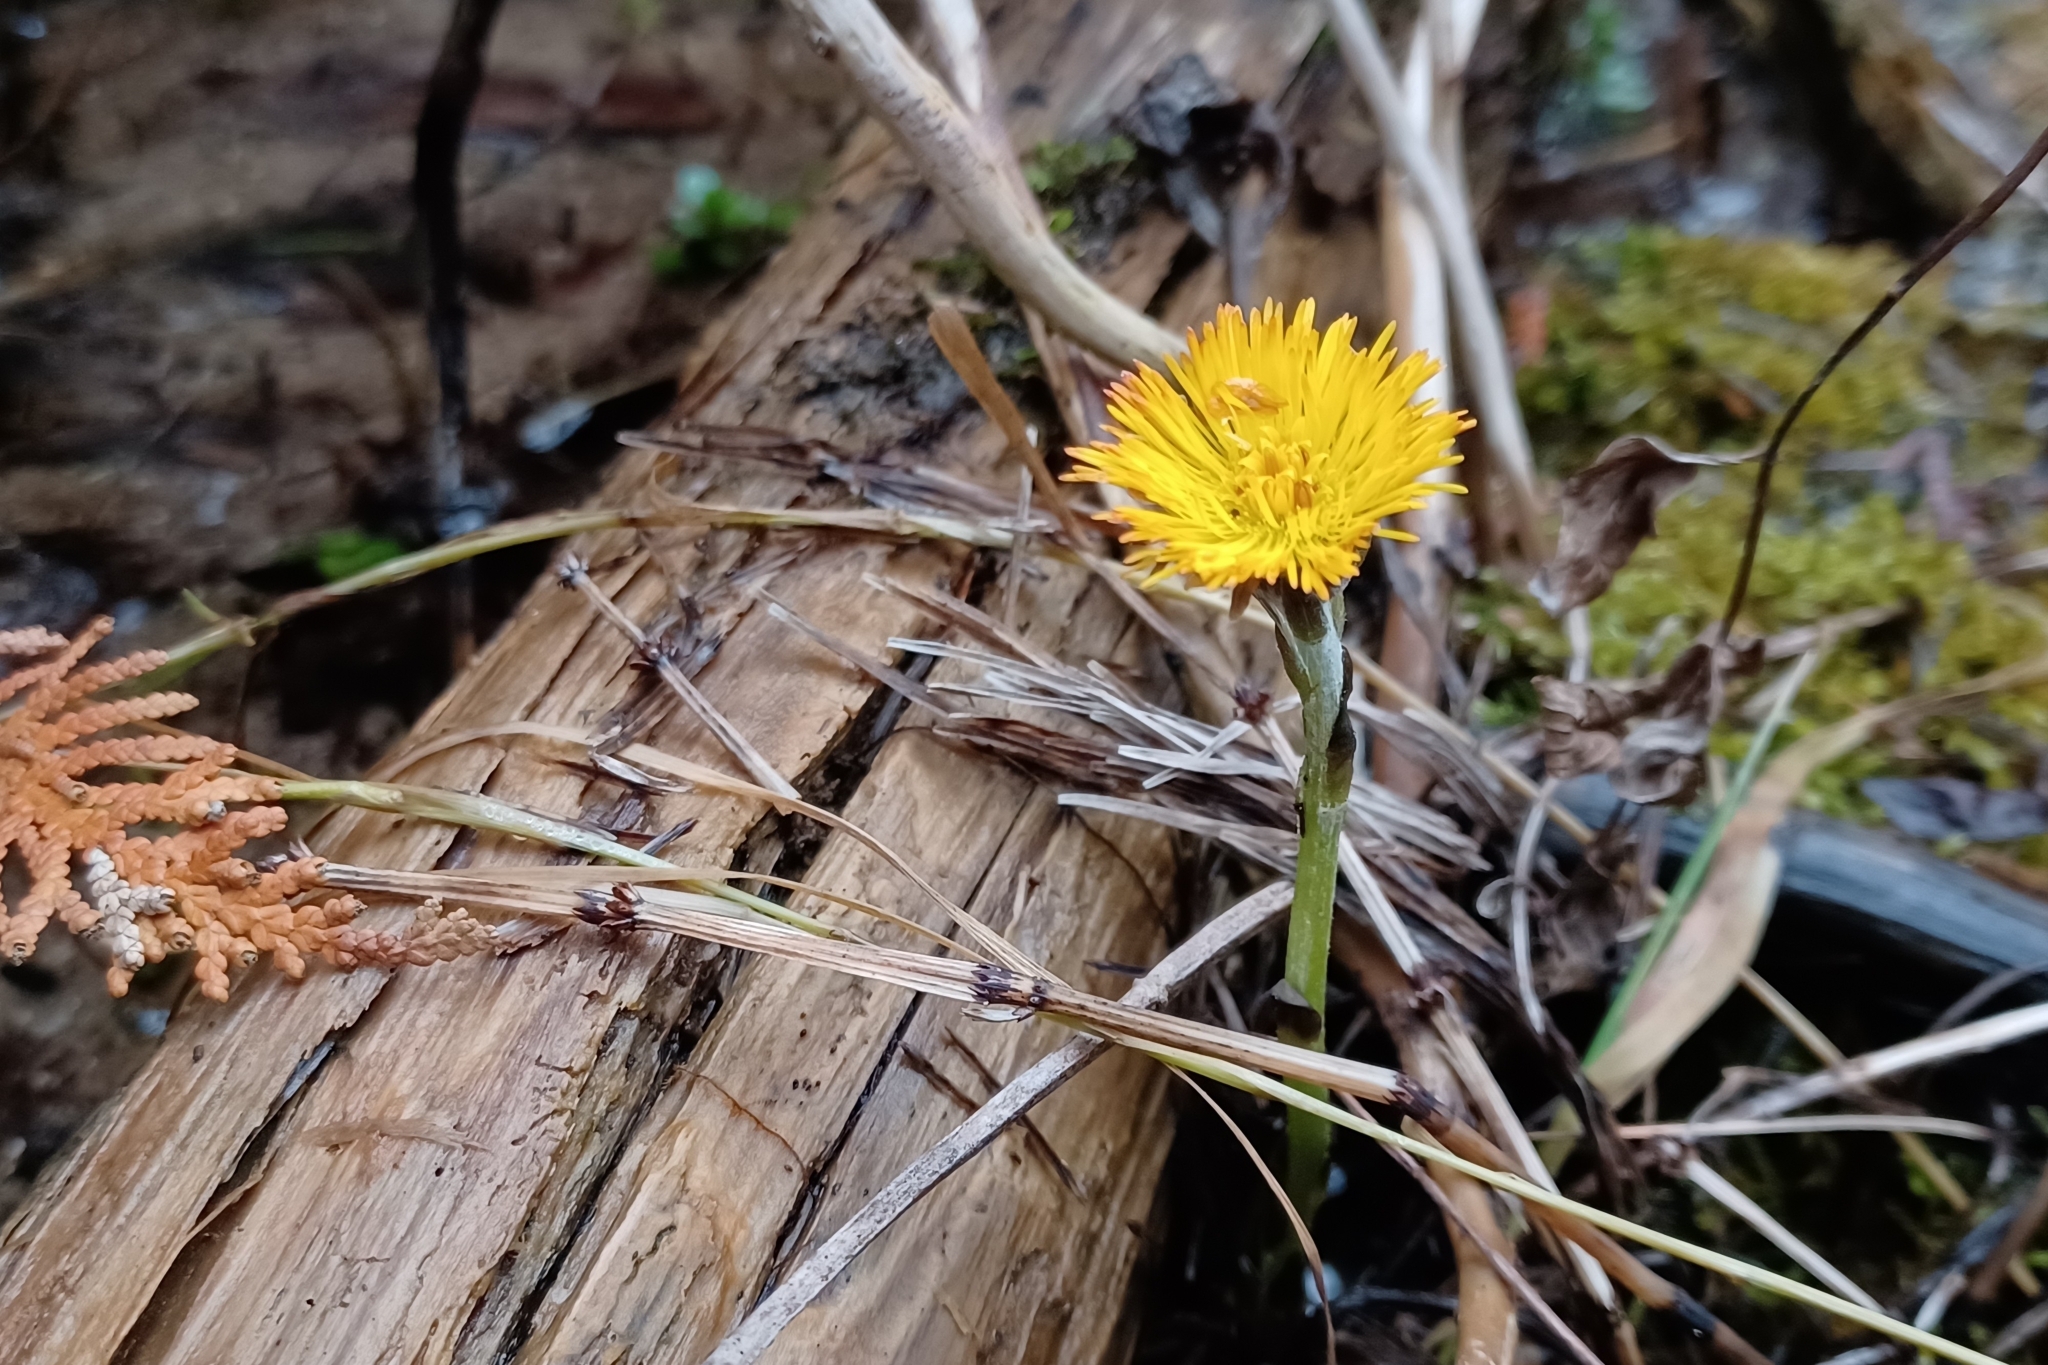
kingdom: Plantae
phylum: Tracheophyta
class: Magnoliopsida
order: Asterales
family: Asteraceae
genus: Tussilago
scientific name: Tussilago farfara
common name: Coltsfoot
